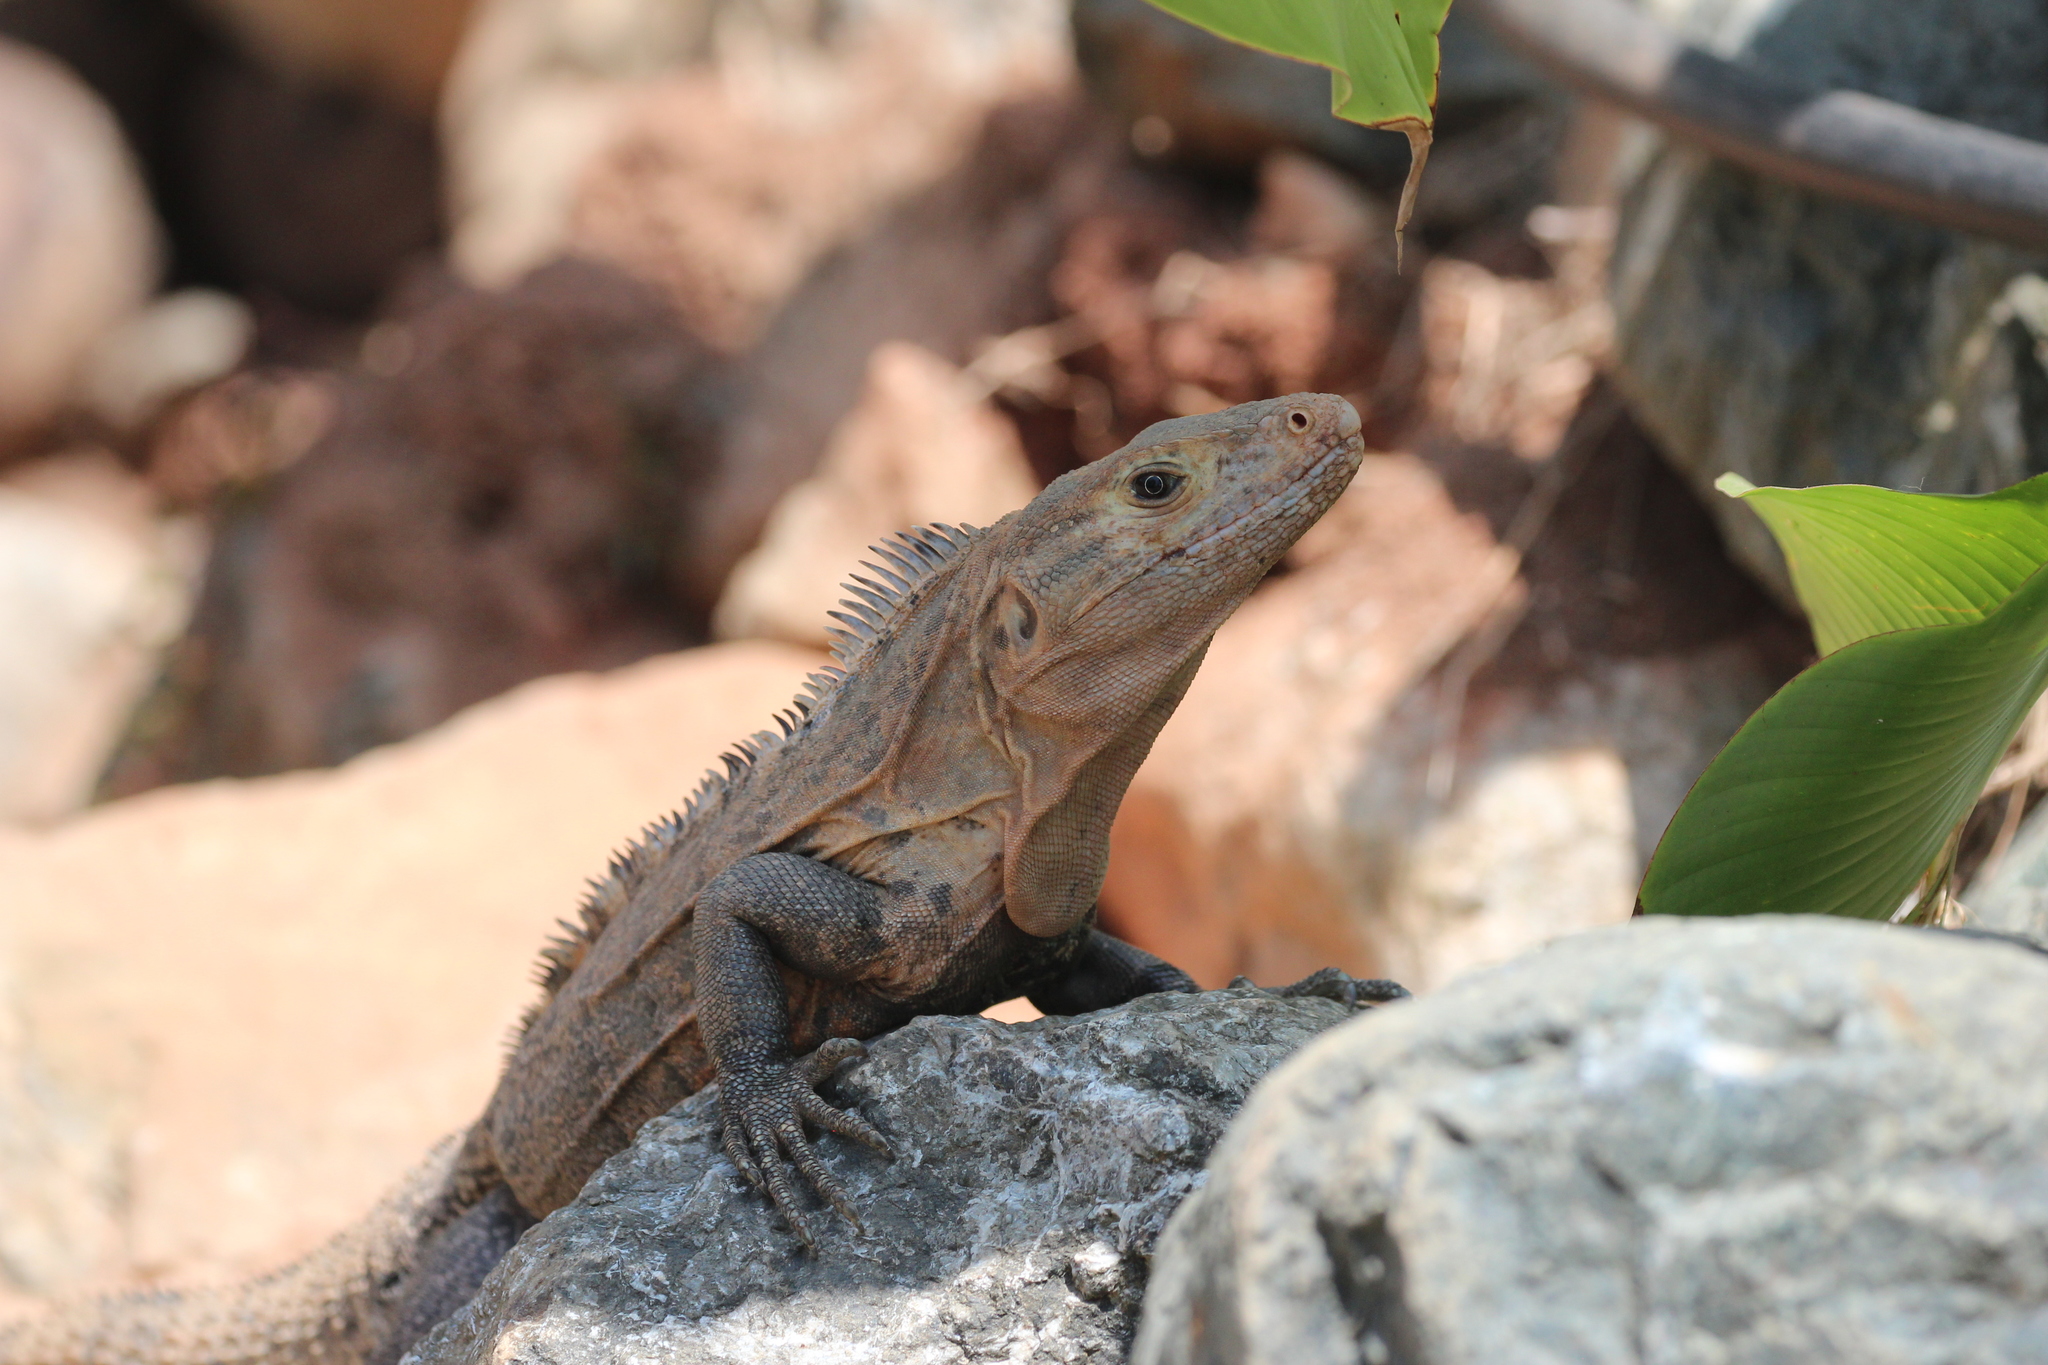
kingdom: Animalia
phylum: Chordata
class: Squamata
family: Iguanidae
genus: Ctenosaura
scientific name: Ctenosaura similis
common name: Black spiny-tailed iguana
